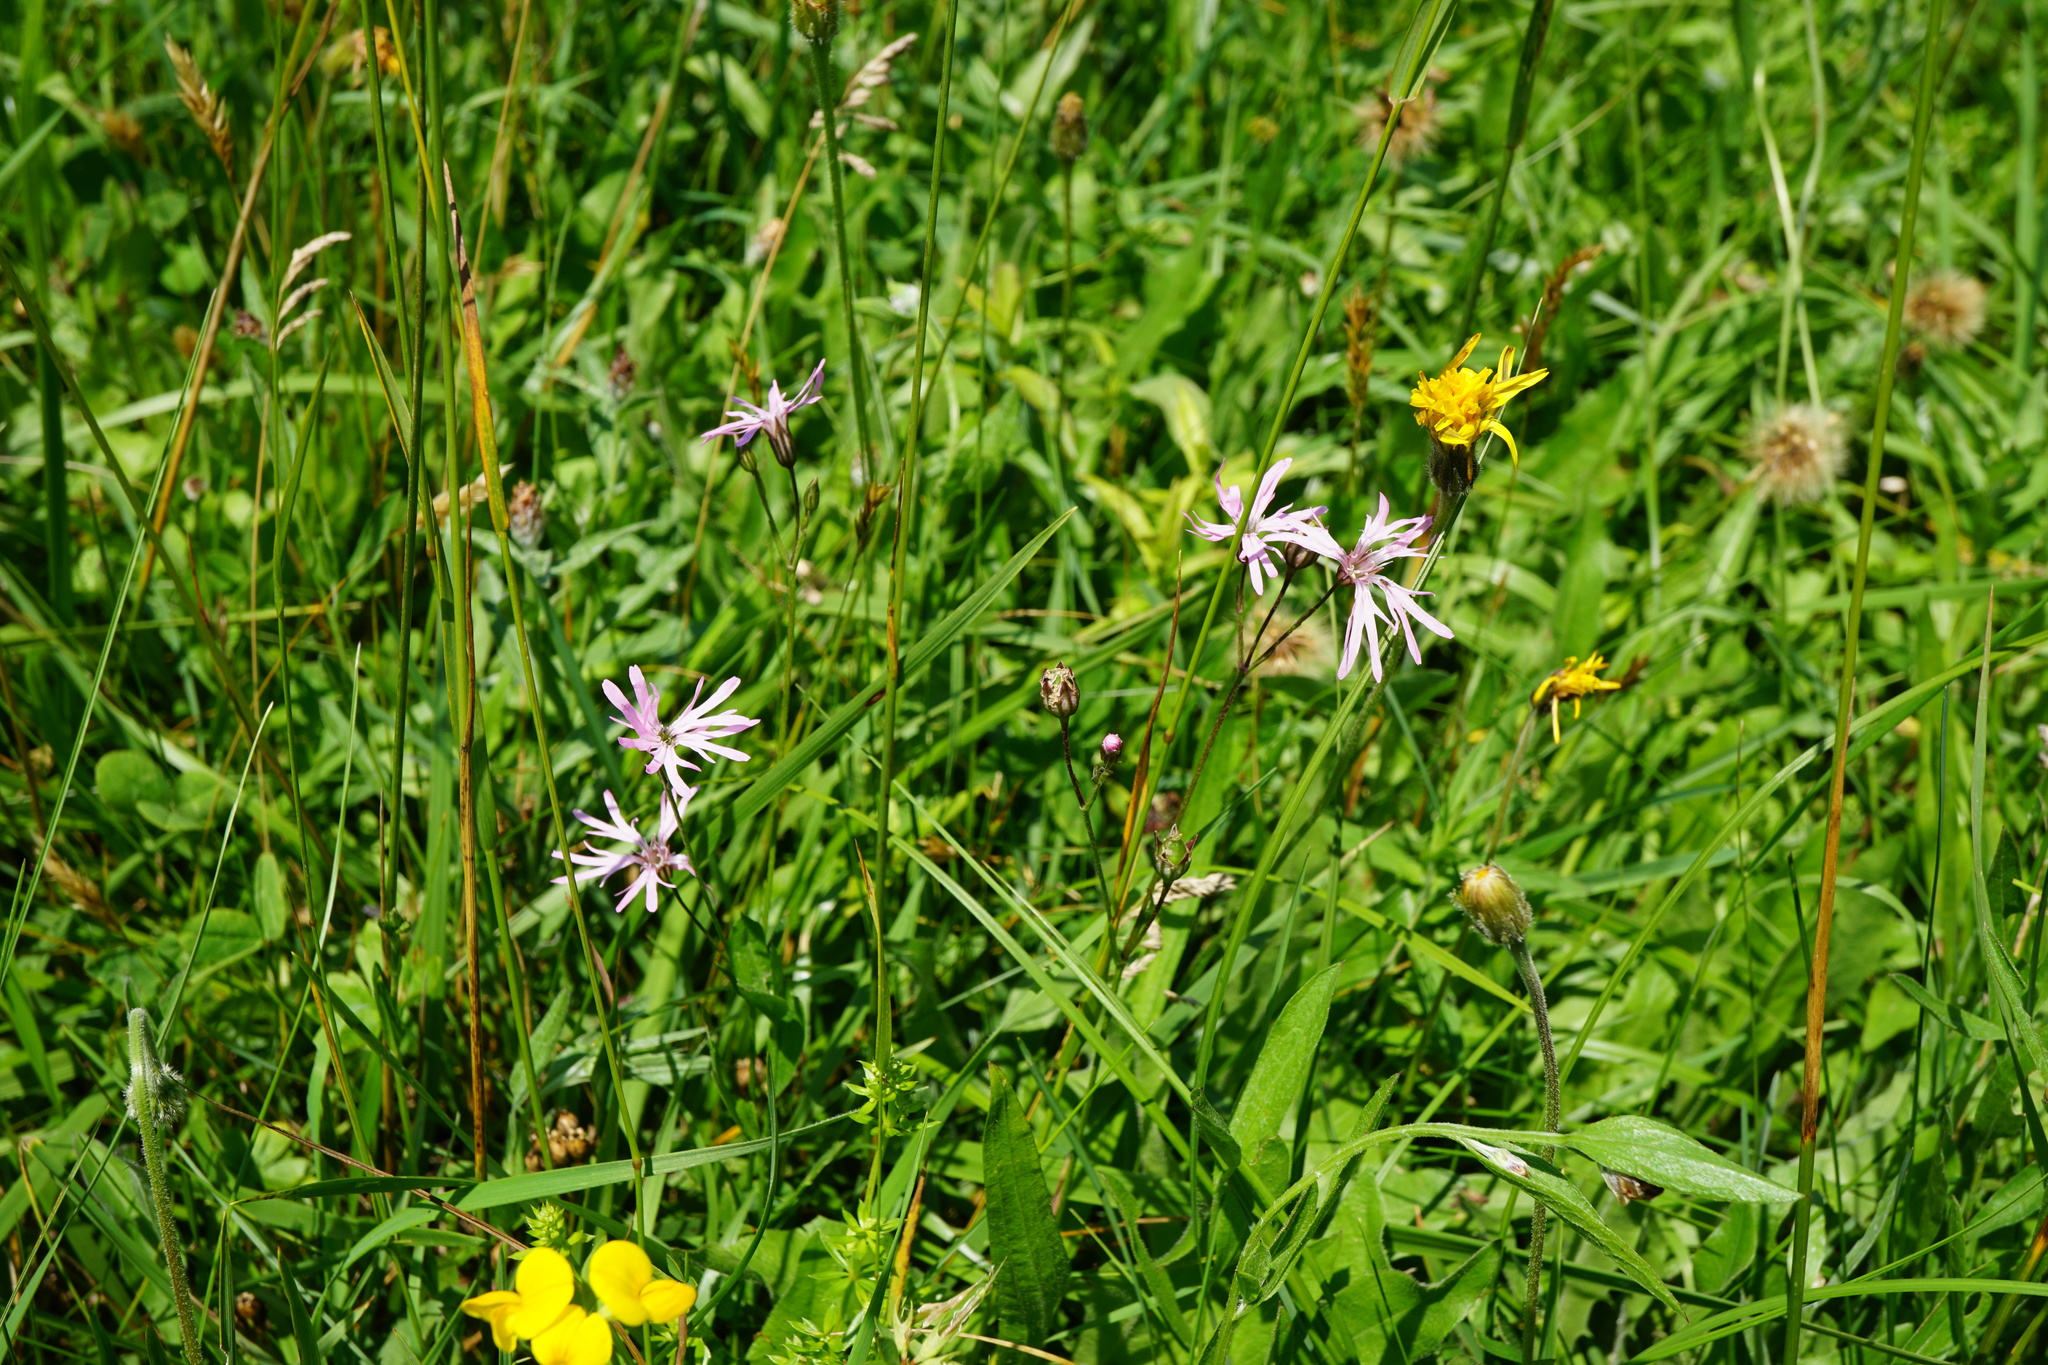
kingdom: Plantae
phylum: Tracheophyta
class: Magnoliopsida
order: Caryophyllales
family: Caryophyllaceae
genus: Silene
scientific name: Silene flos-cuculi
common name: Ragged-robin
